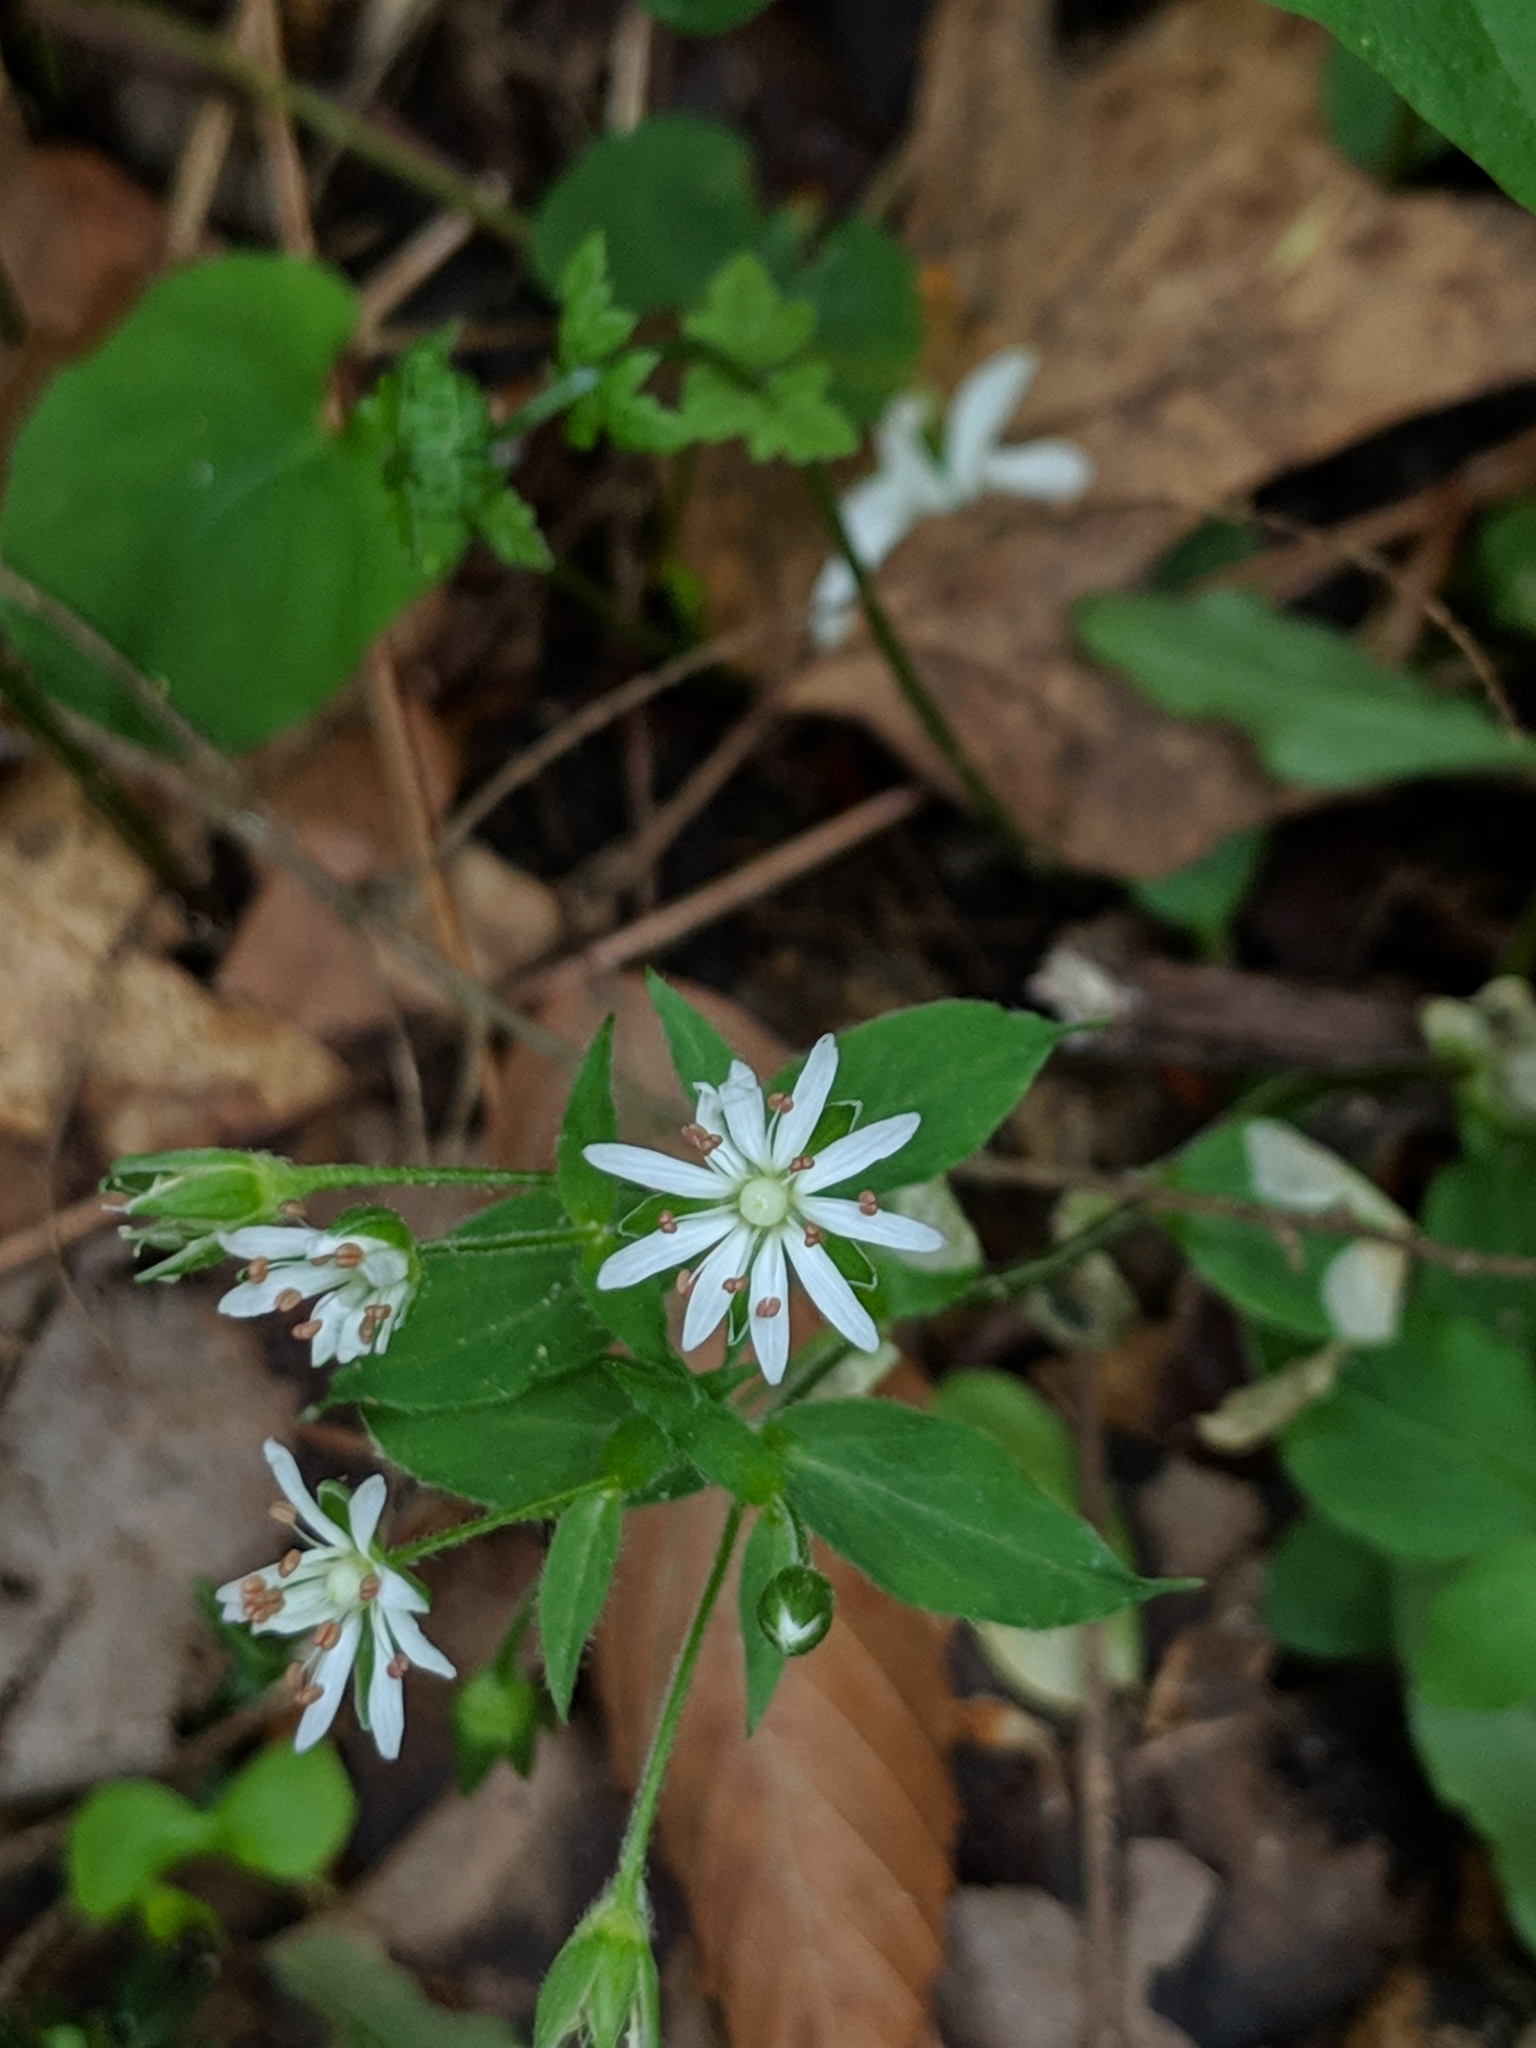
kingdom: Plantae
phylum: Tracheophyta
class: Magnoliopsida
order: Caryophyllales
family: Caryophyllaceae
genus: Stellaria
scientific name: Stellaria pubera
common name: Star chickweed
